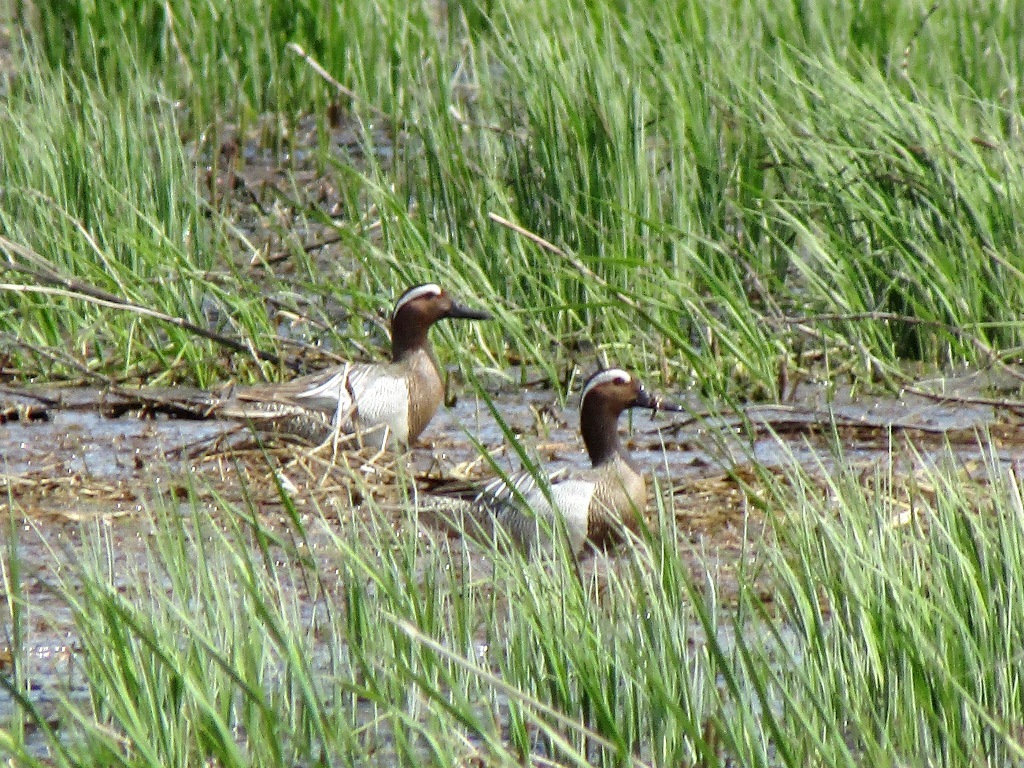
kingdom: Animalia
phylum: Chordata
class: Aves
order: Anseriformes
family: Anatidae
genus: Spatula
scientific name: Spatula querquedula
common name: Garganey
